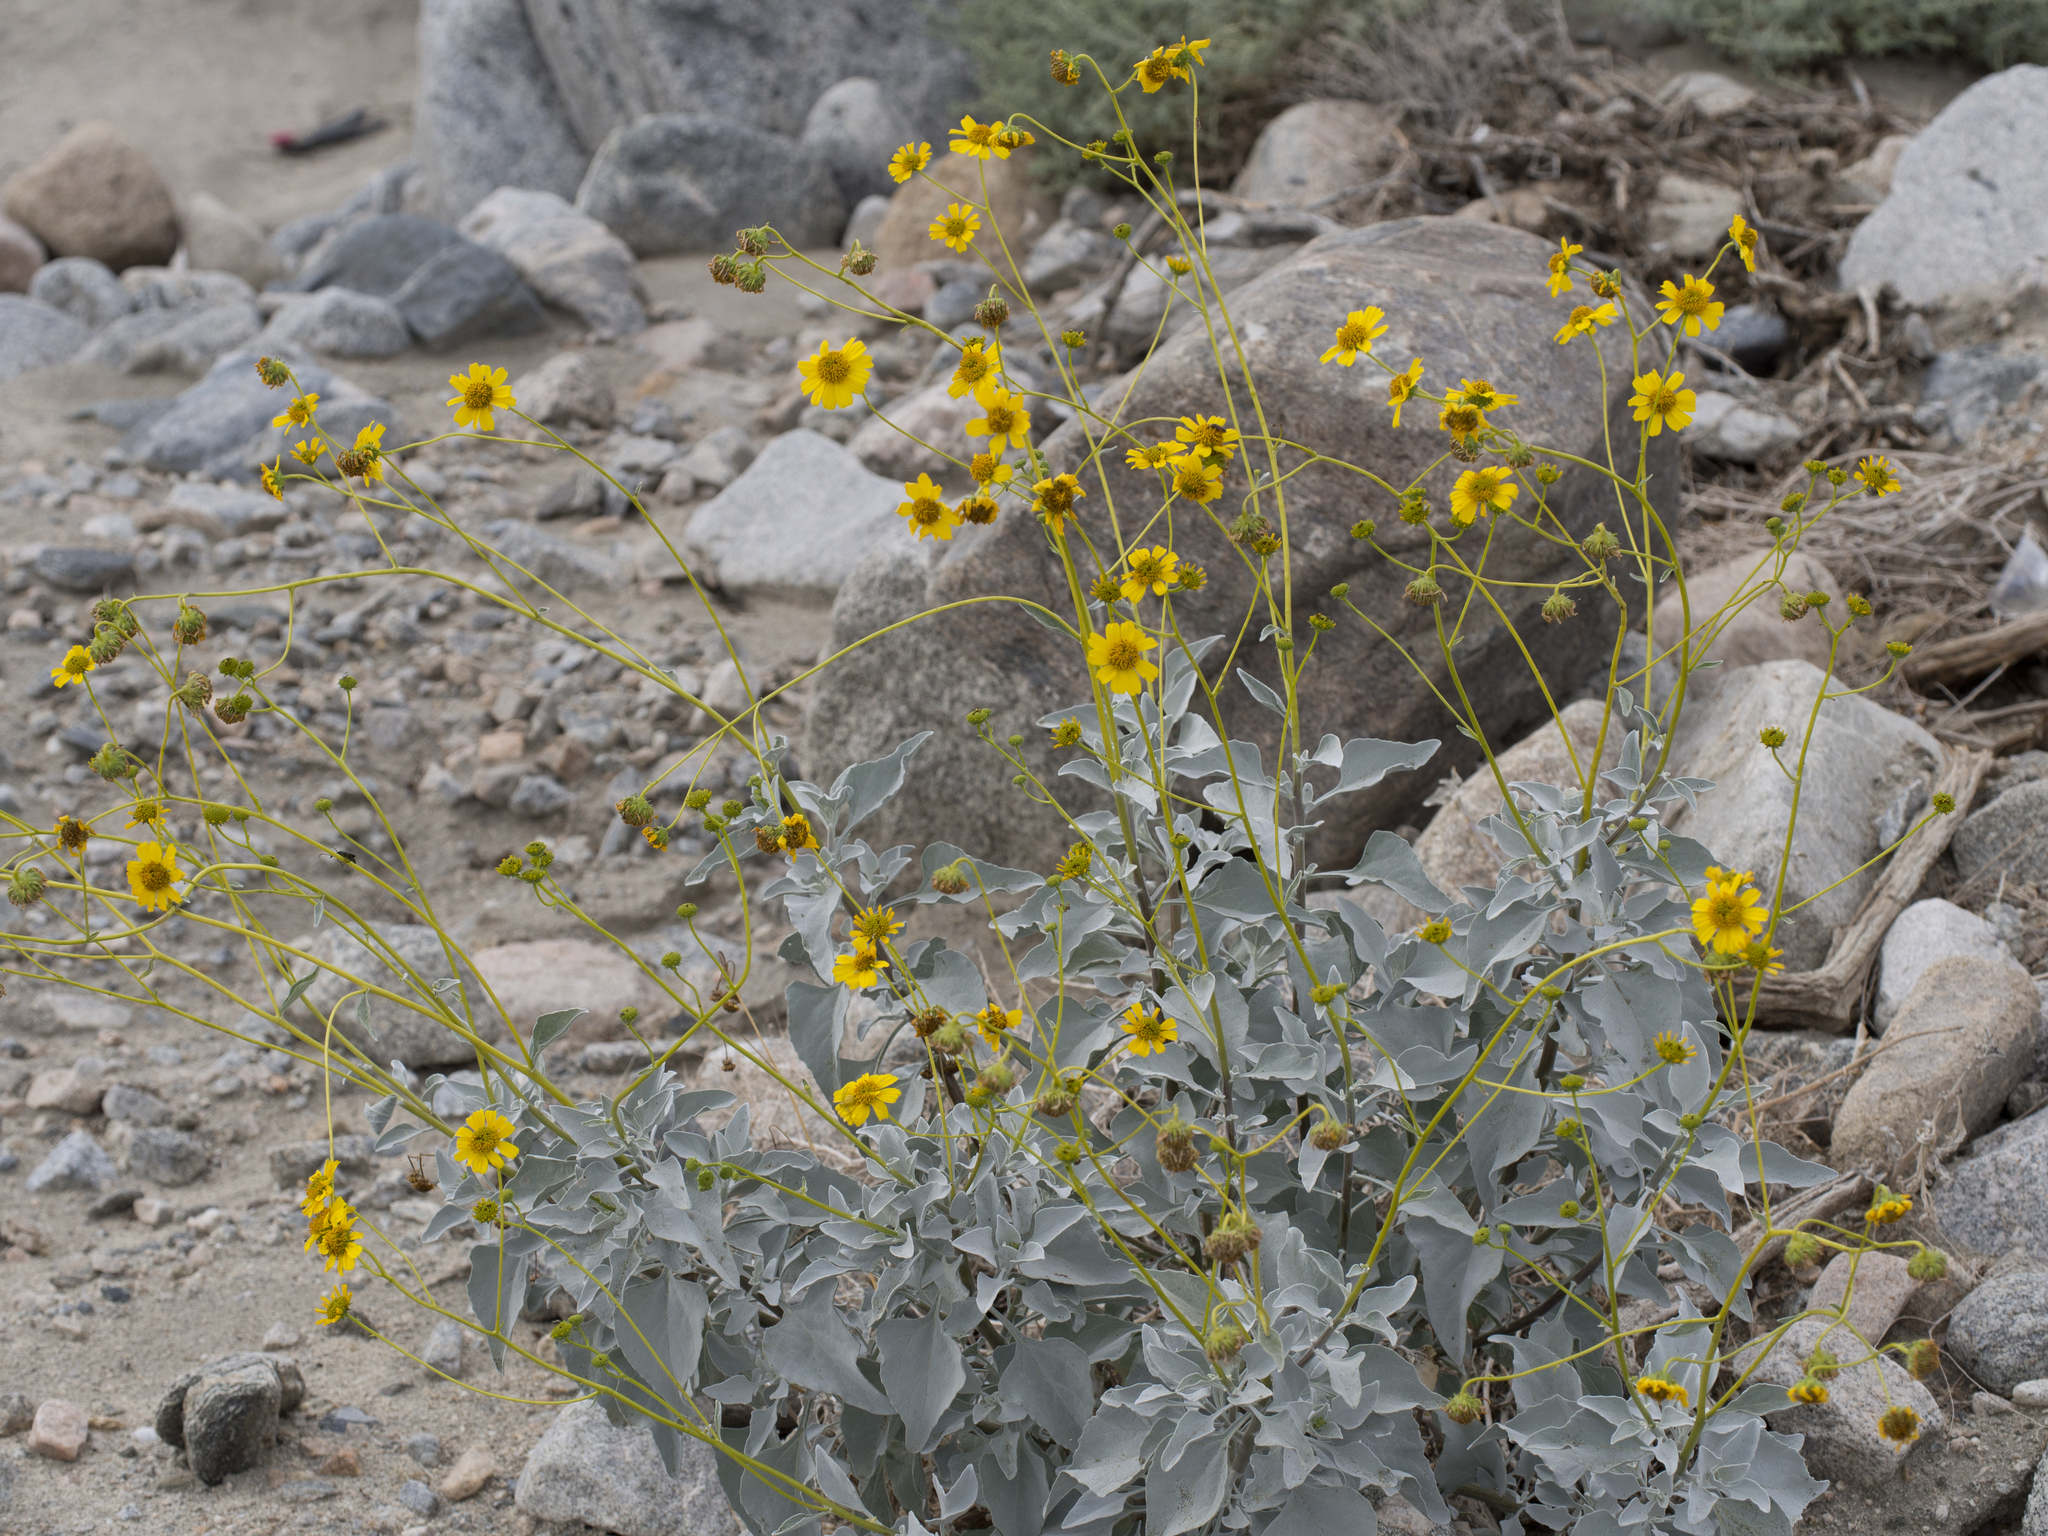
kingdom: Plantae
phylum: Tracheophyta
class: Magnoliopsida
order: Asterales
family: Asteraceae
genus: Encelia
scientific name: Encelia farinosa
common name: Brittlebush
